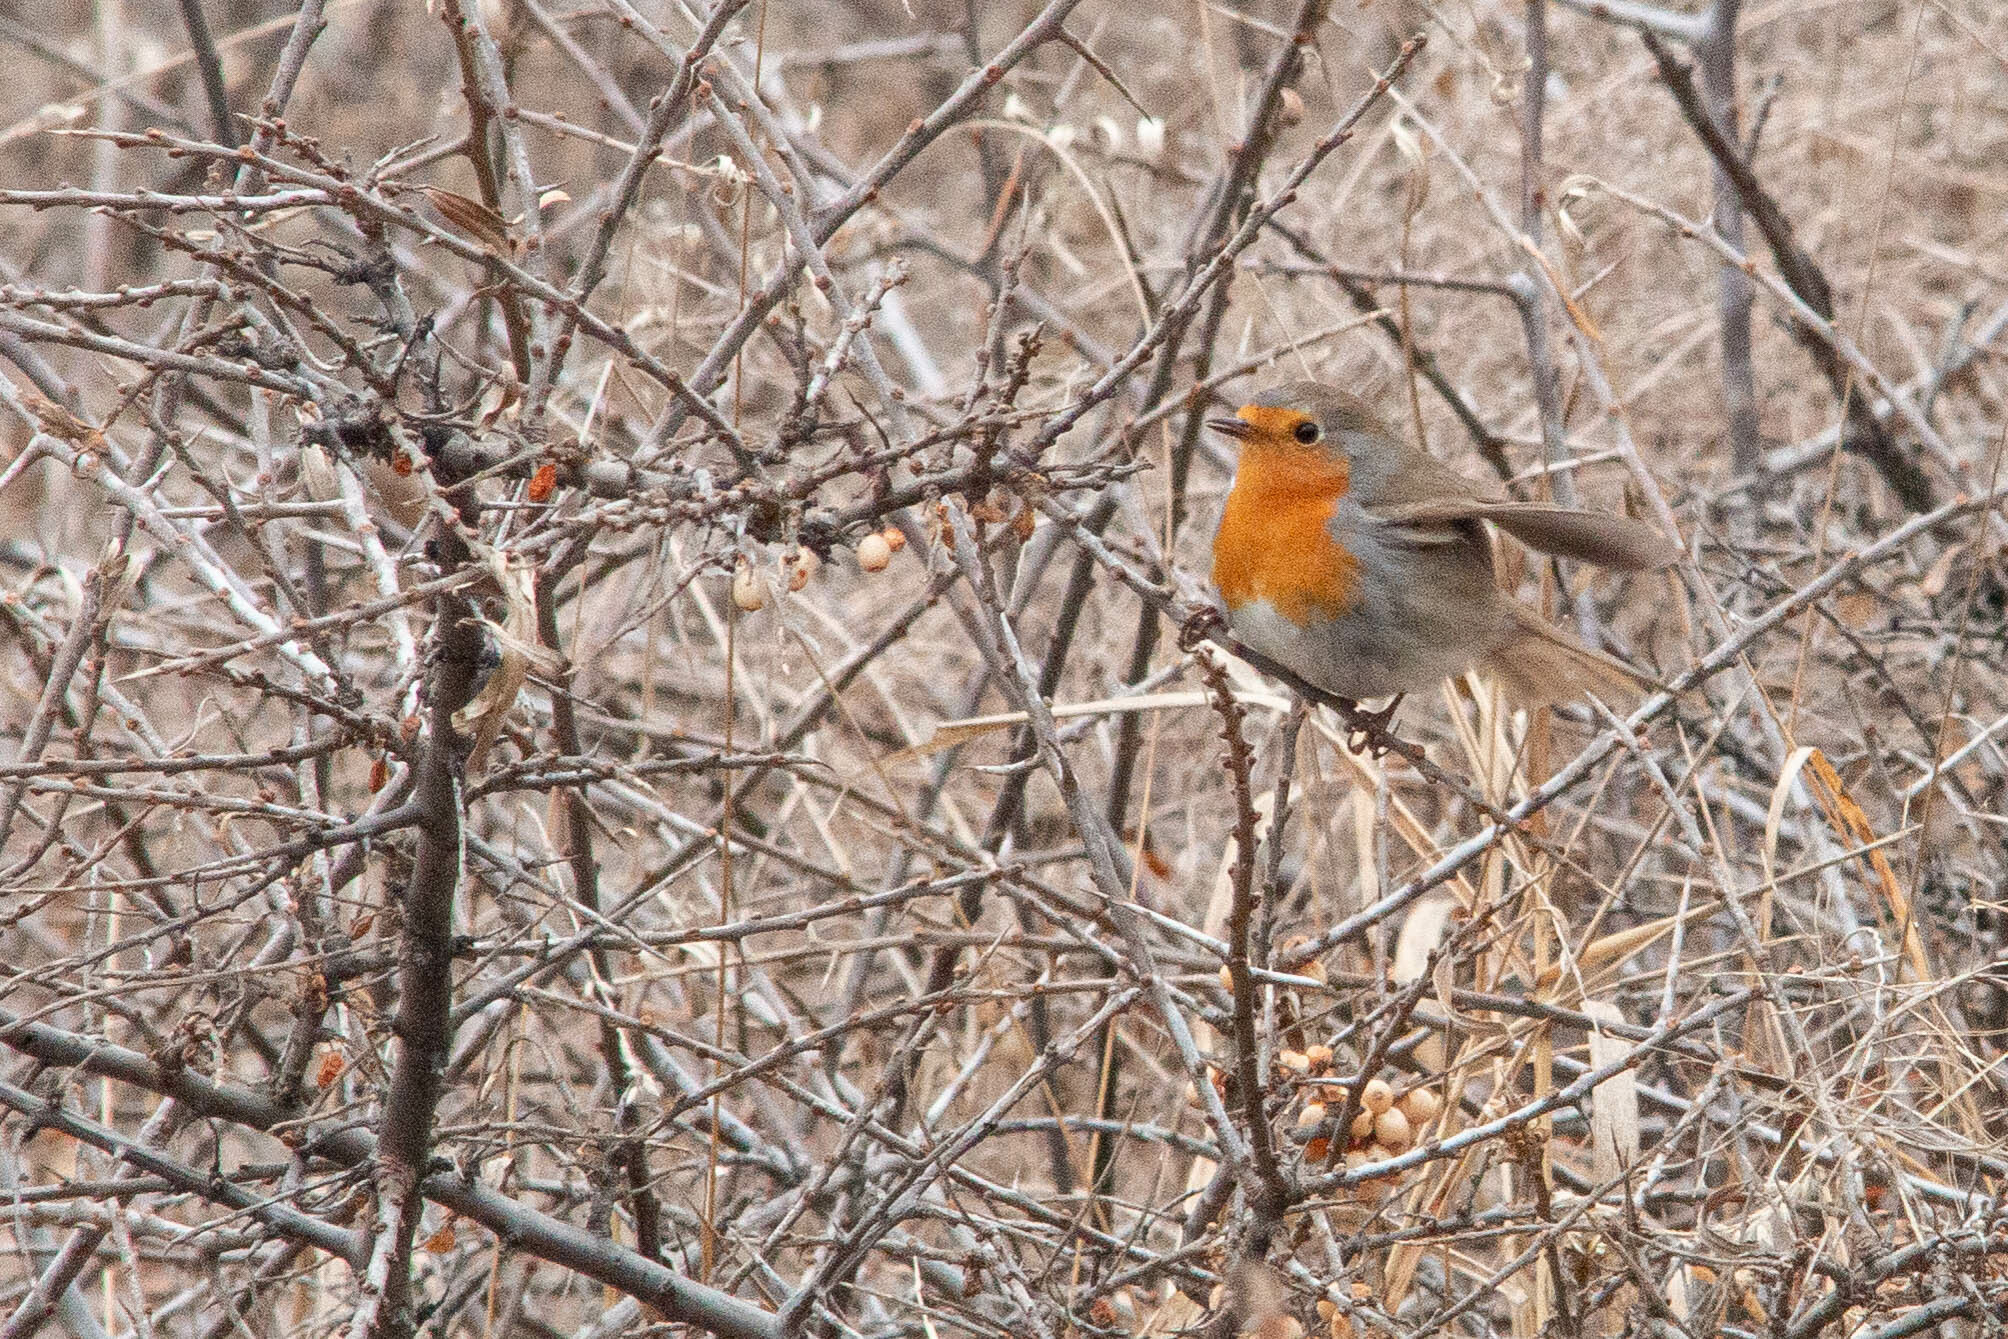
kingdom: Animalia
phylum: Chordata
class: Aves
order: Passeriformes
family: Muscicapidae
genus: Erithacus
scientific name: Erithacus rubecula
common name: European robin
